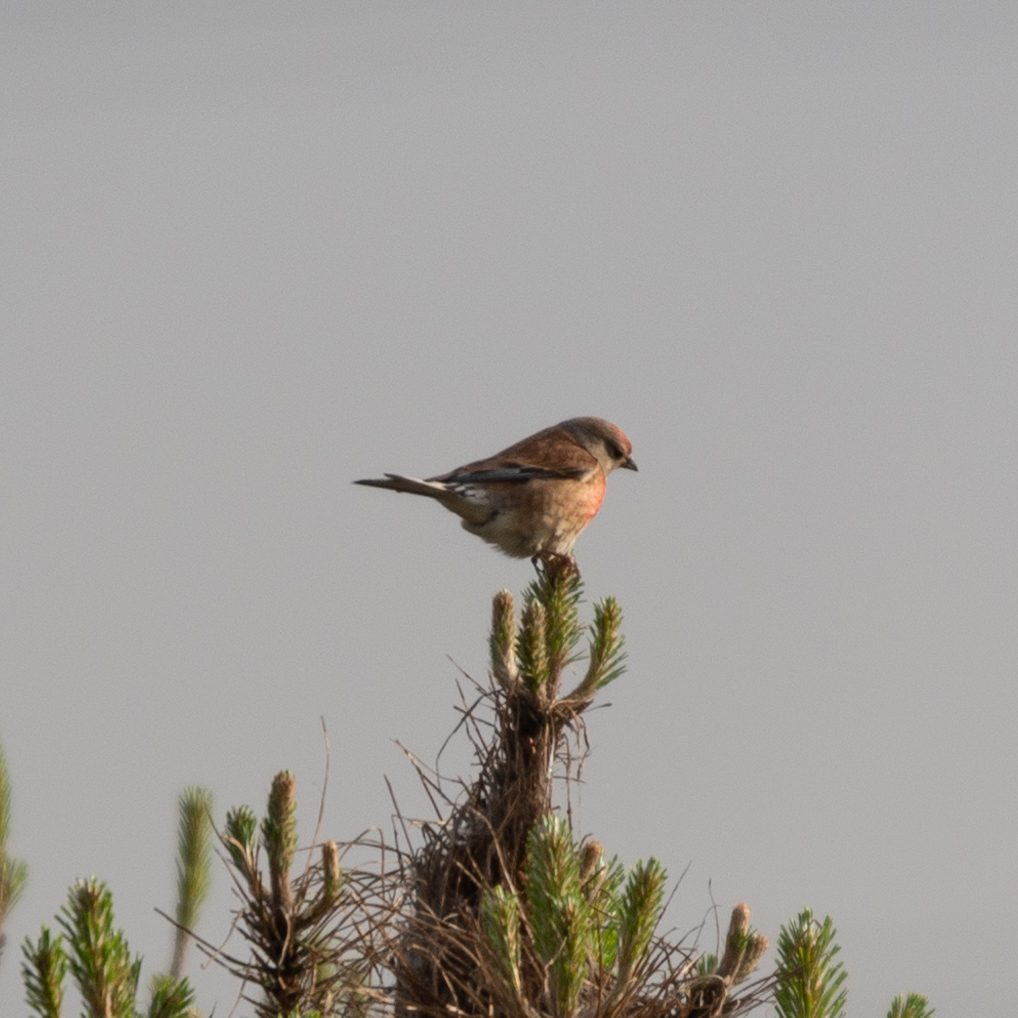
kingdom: Animalia
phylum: Chordata
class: Aves
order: Passeriformes
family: Fringillidae
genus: Linaria
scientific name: Linaria cannabina
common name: Common linnet
